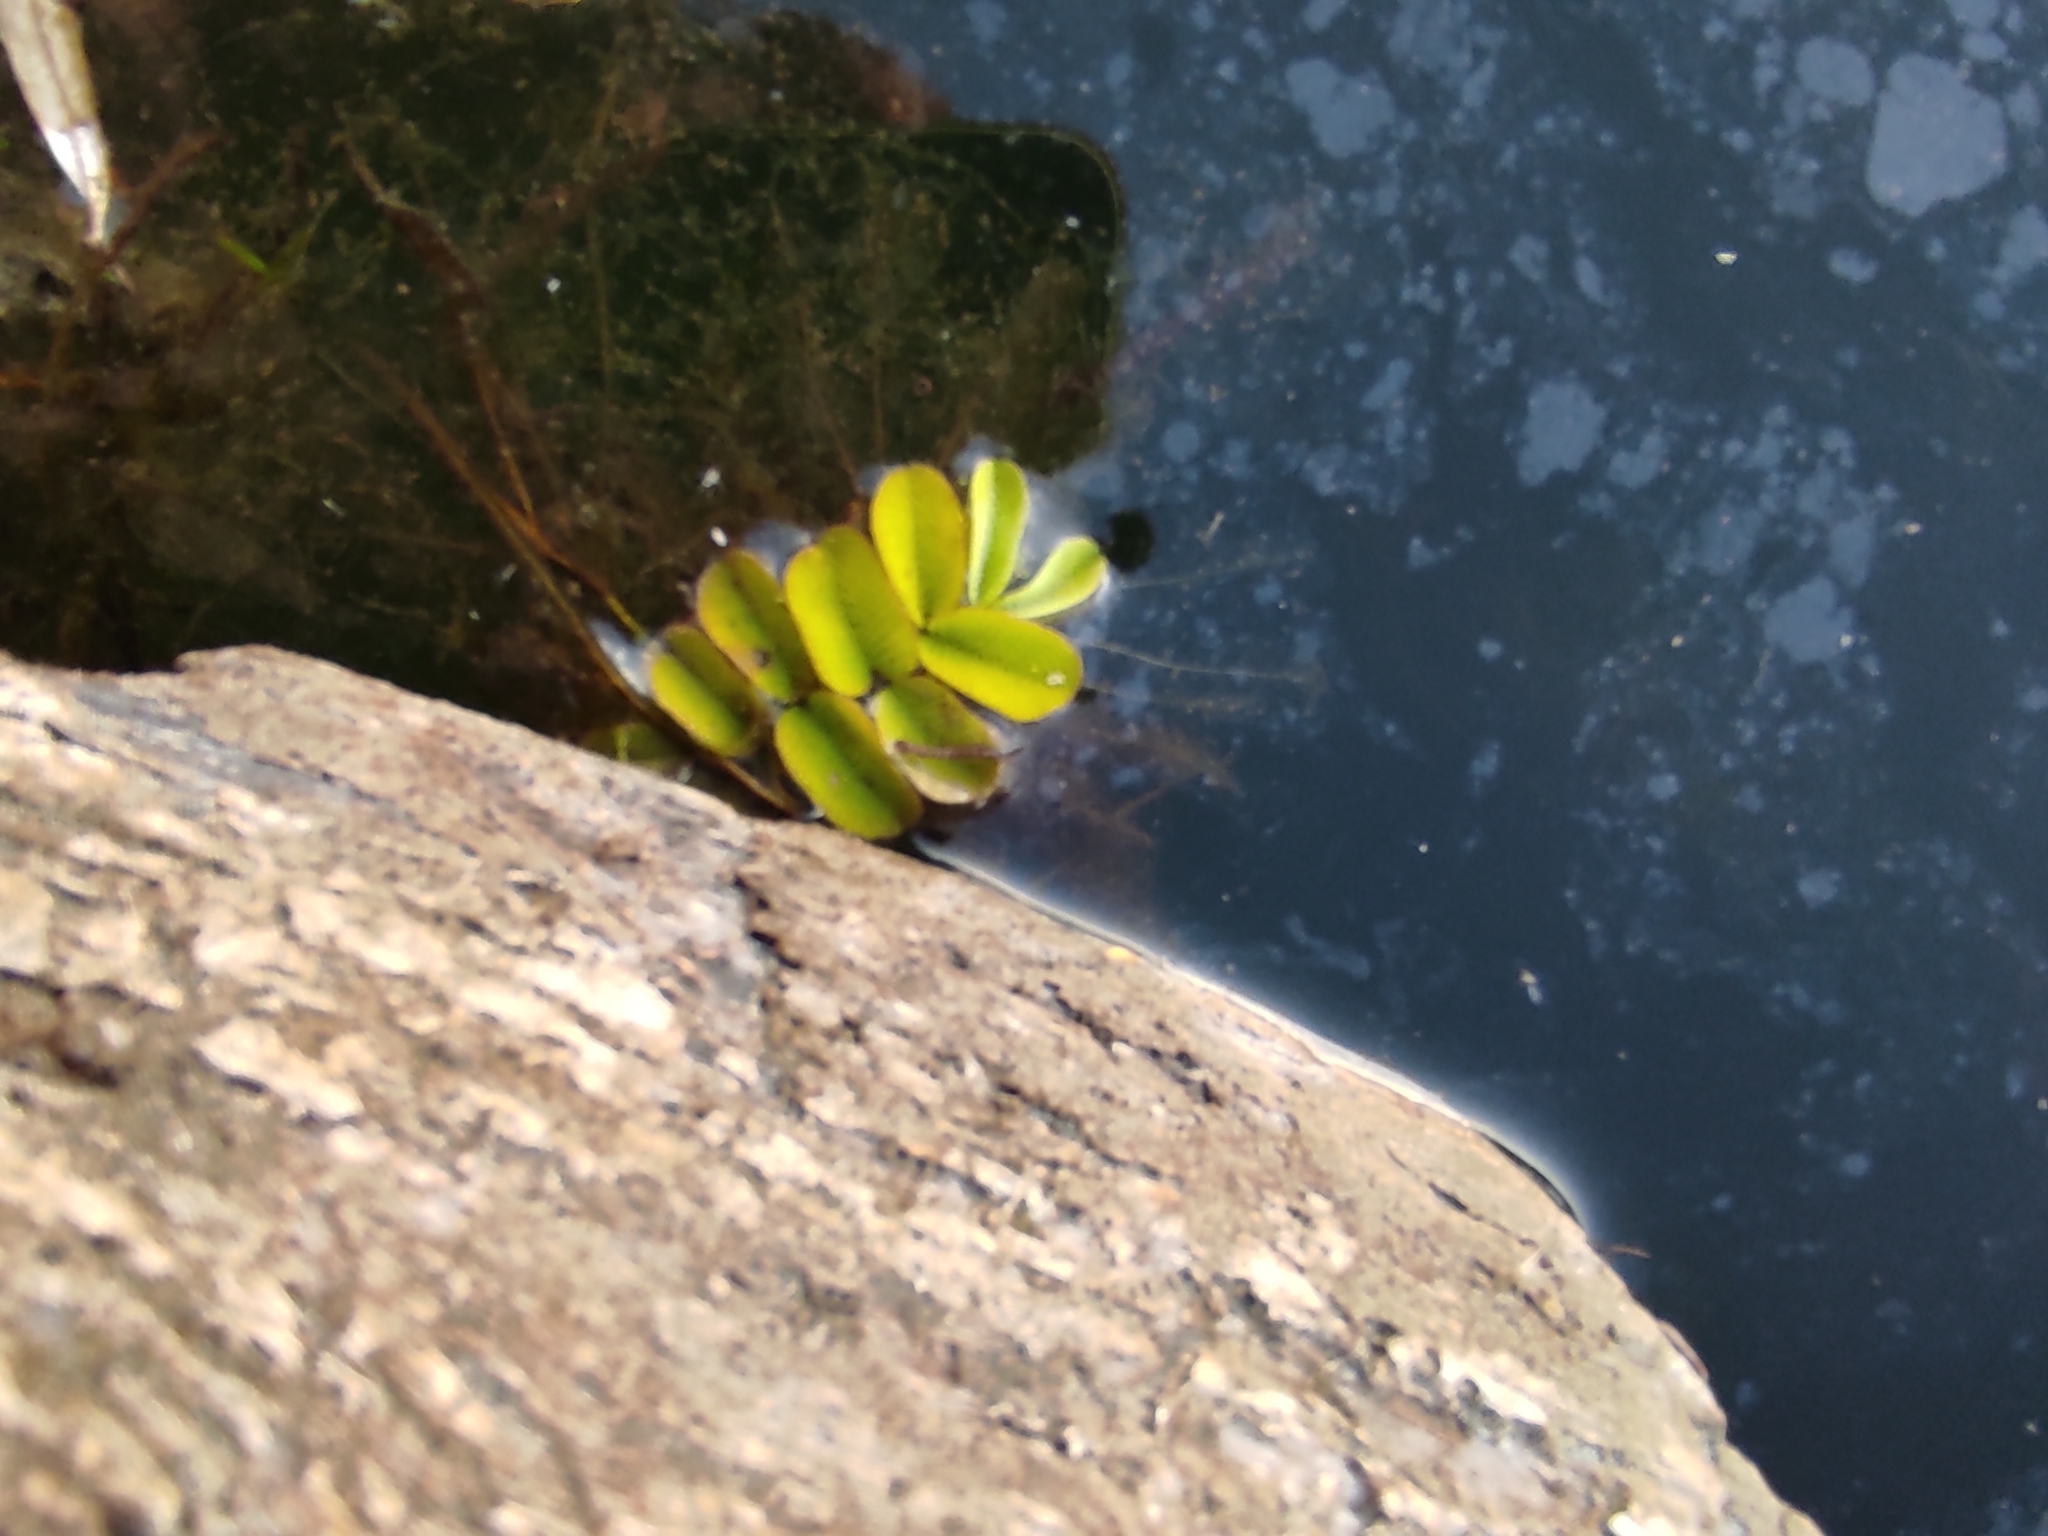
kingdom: Plantae
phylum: Tracheophyta
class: Polypodiopsida
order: Salviniales
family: Salviniaceae
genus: Salvinia
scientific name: Salvinia natans
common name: Floating fern
